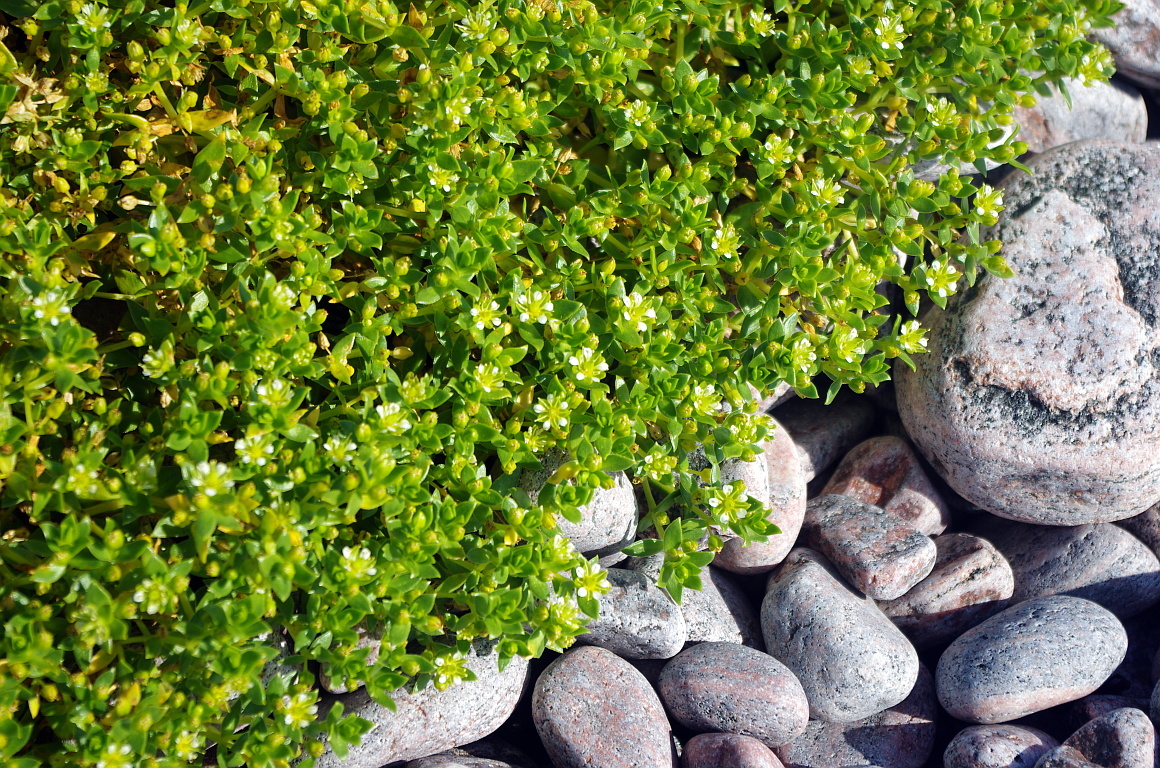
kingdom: Plantae
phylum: Tracheophyta
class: Magnoliopsida
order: Caryophyllales
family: Caryophyllaceae
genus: Honckenya
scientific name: Honckenya peploides
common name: Sea sandwort
